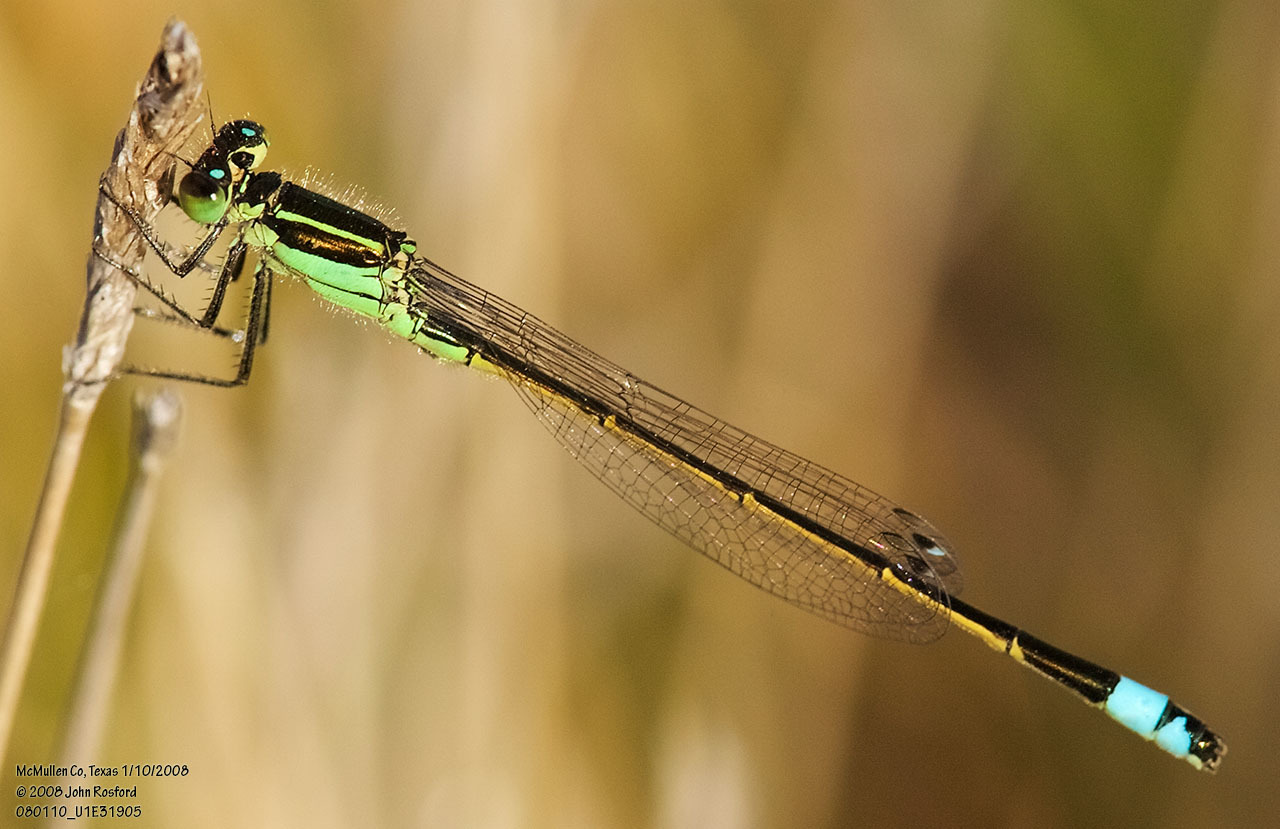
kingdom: Animalia
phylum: Arthropoda
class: Insecta
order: Odonata
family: Coenagrionidae
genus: Ischnura
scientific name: Ischnura ramburii
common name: Rambur's forktail
